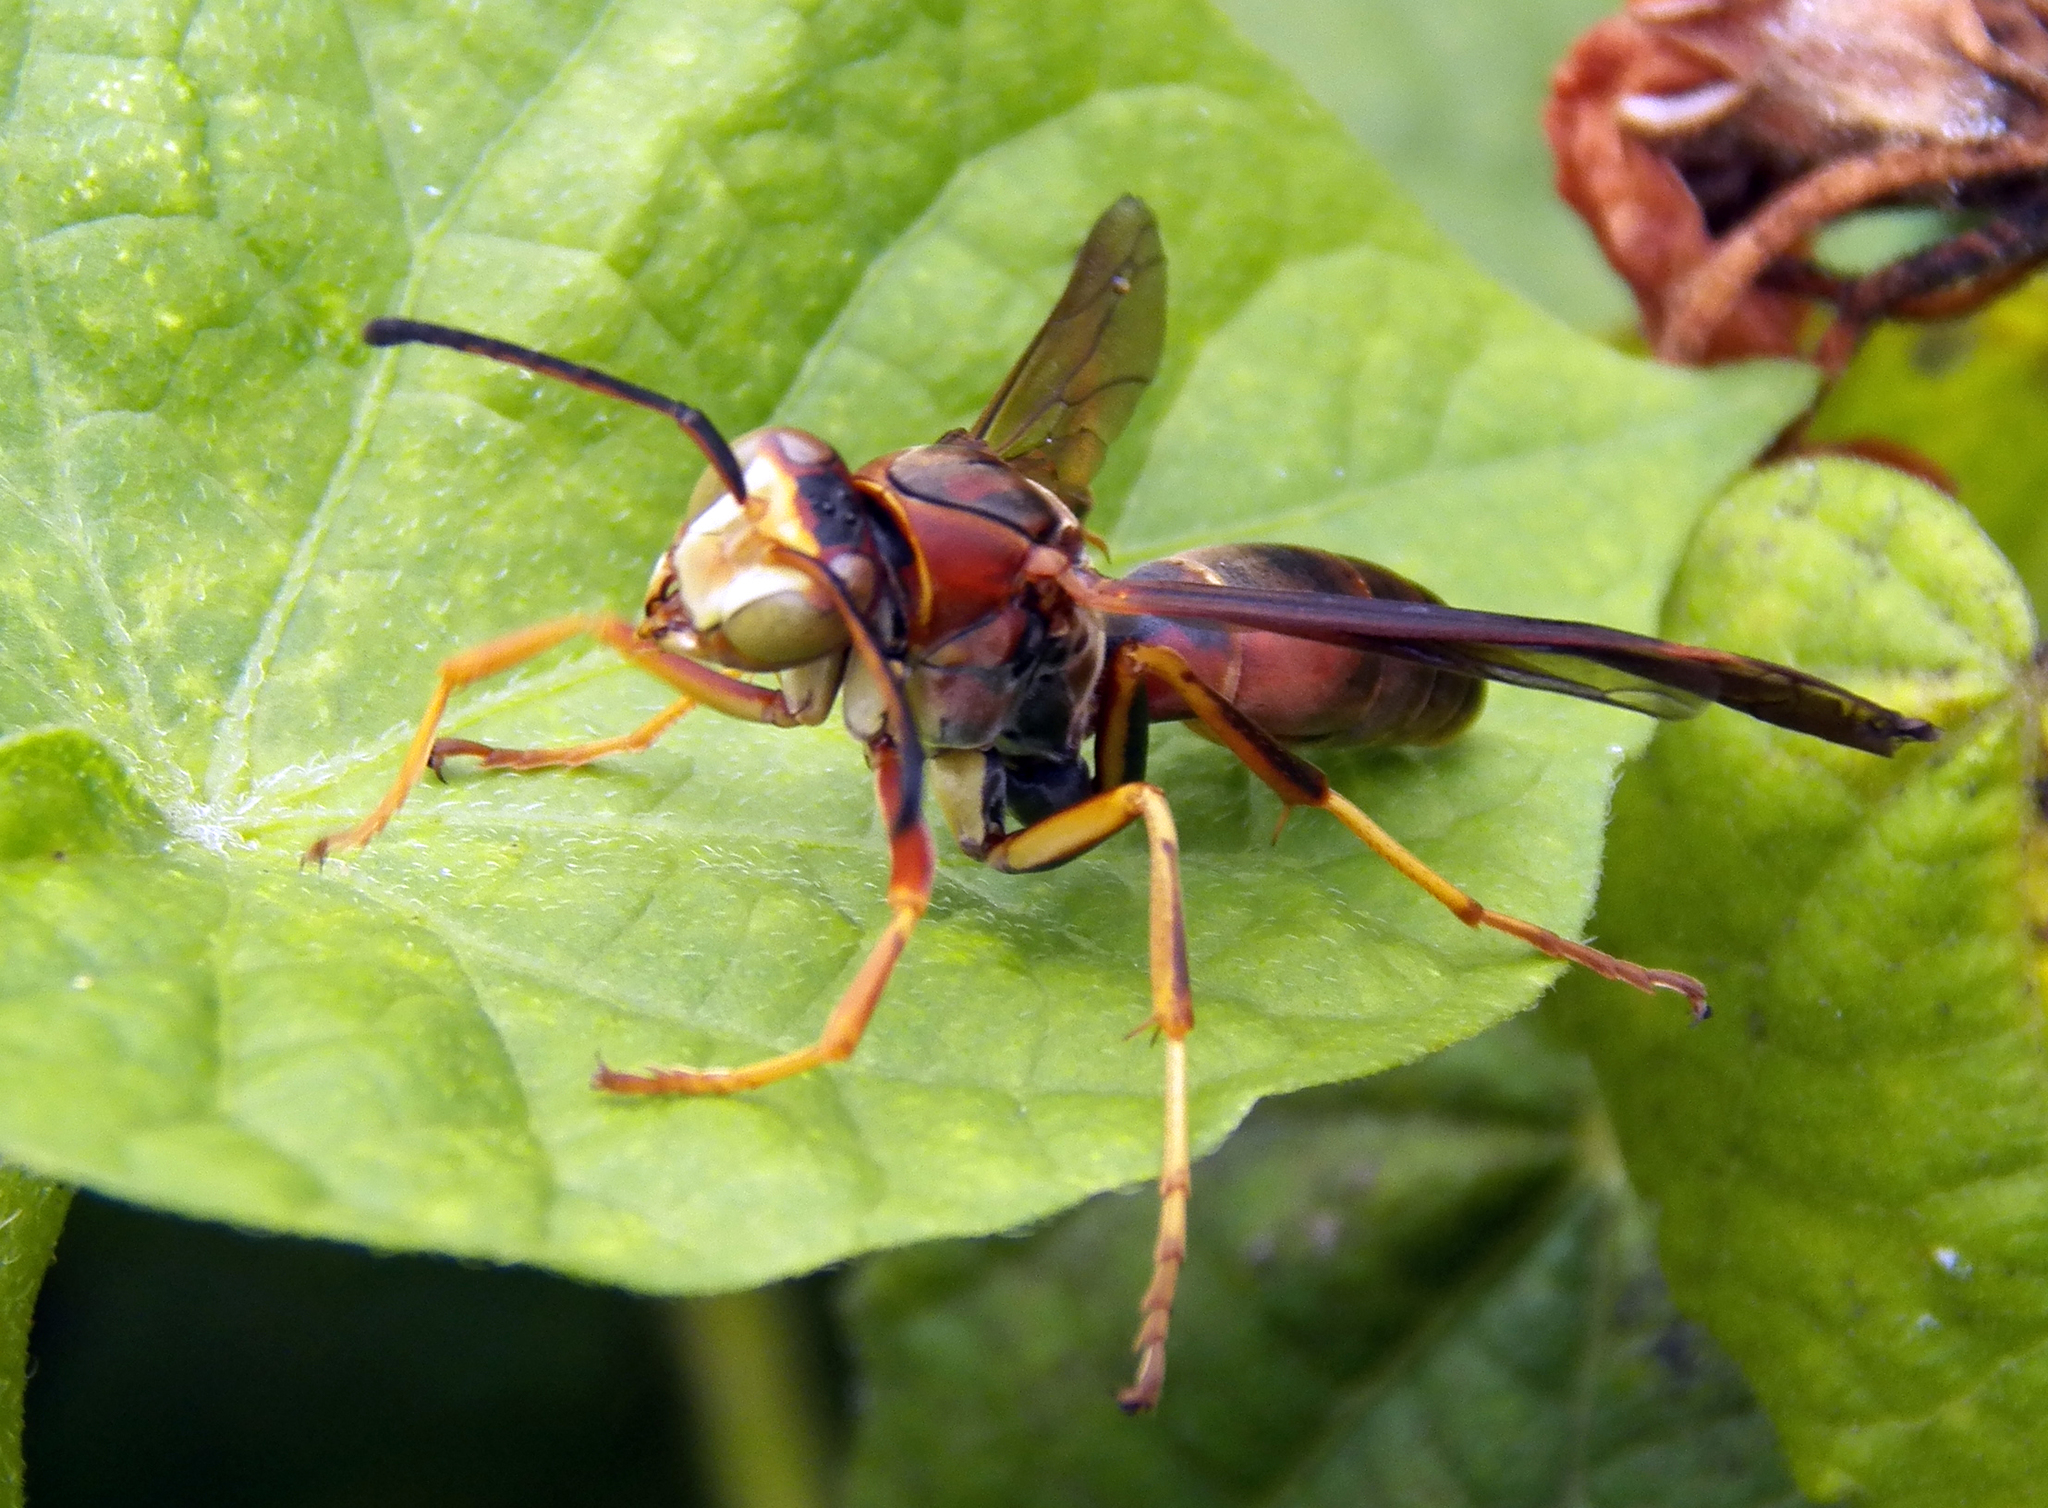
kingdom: Animalia
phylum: Arthropoda
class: Insecta
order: Hymenoptera
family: Eumenidae
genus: Polistes
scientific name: Polistes fuscatus
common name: Dark paper wasp
